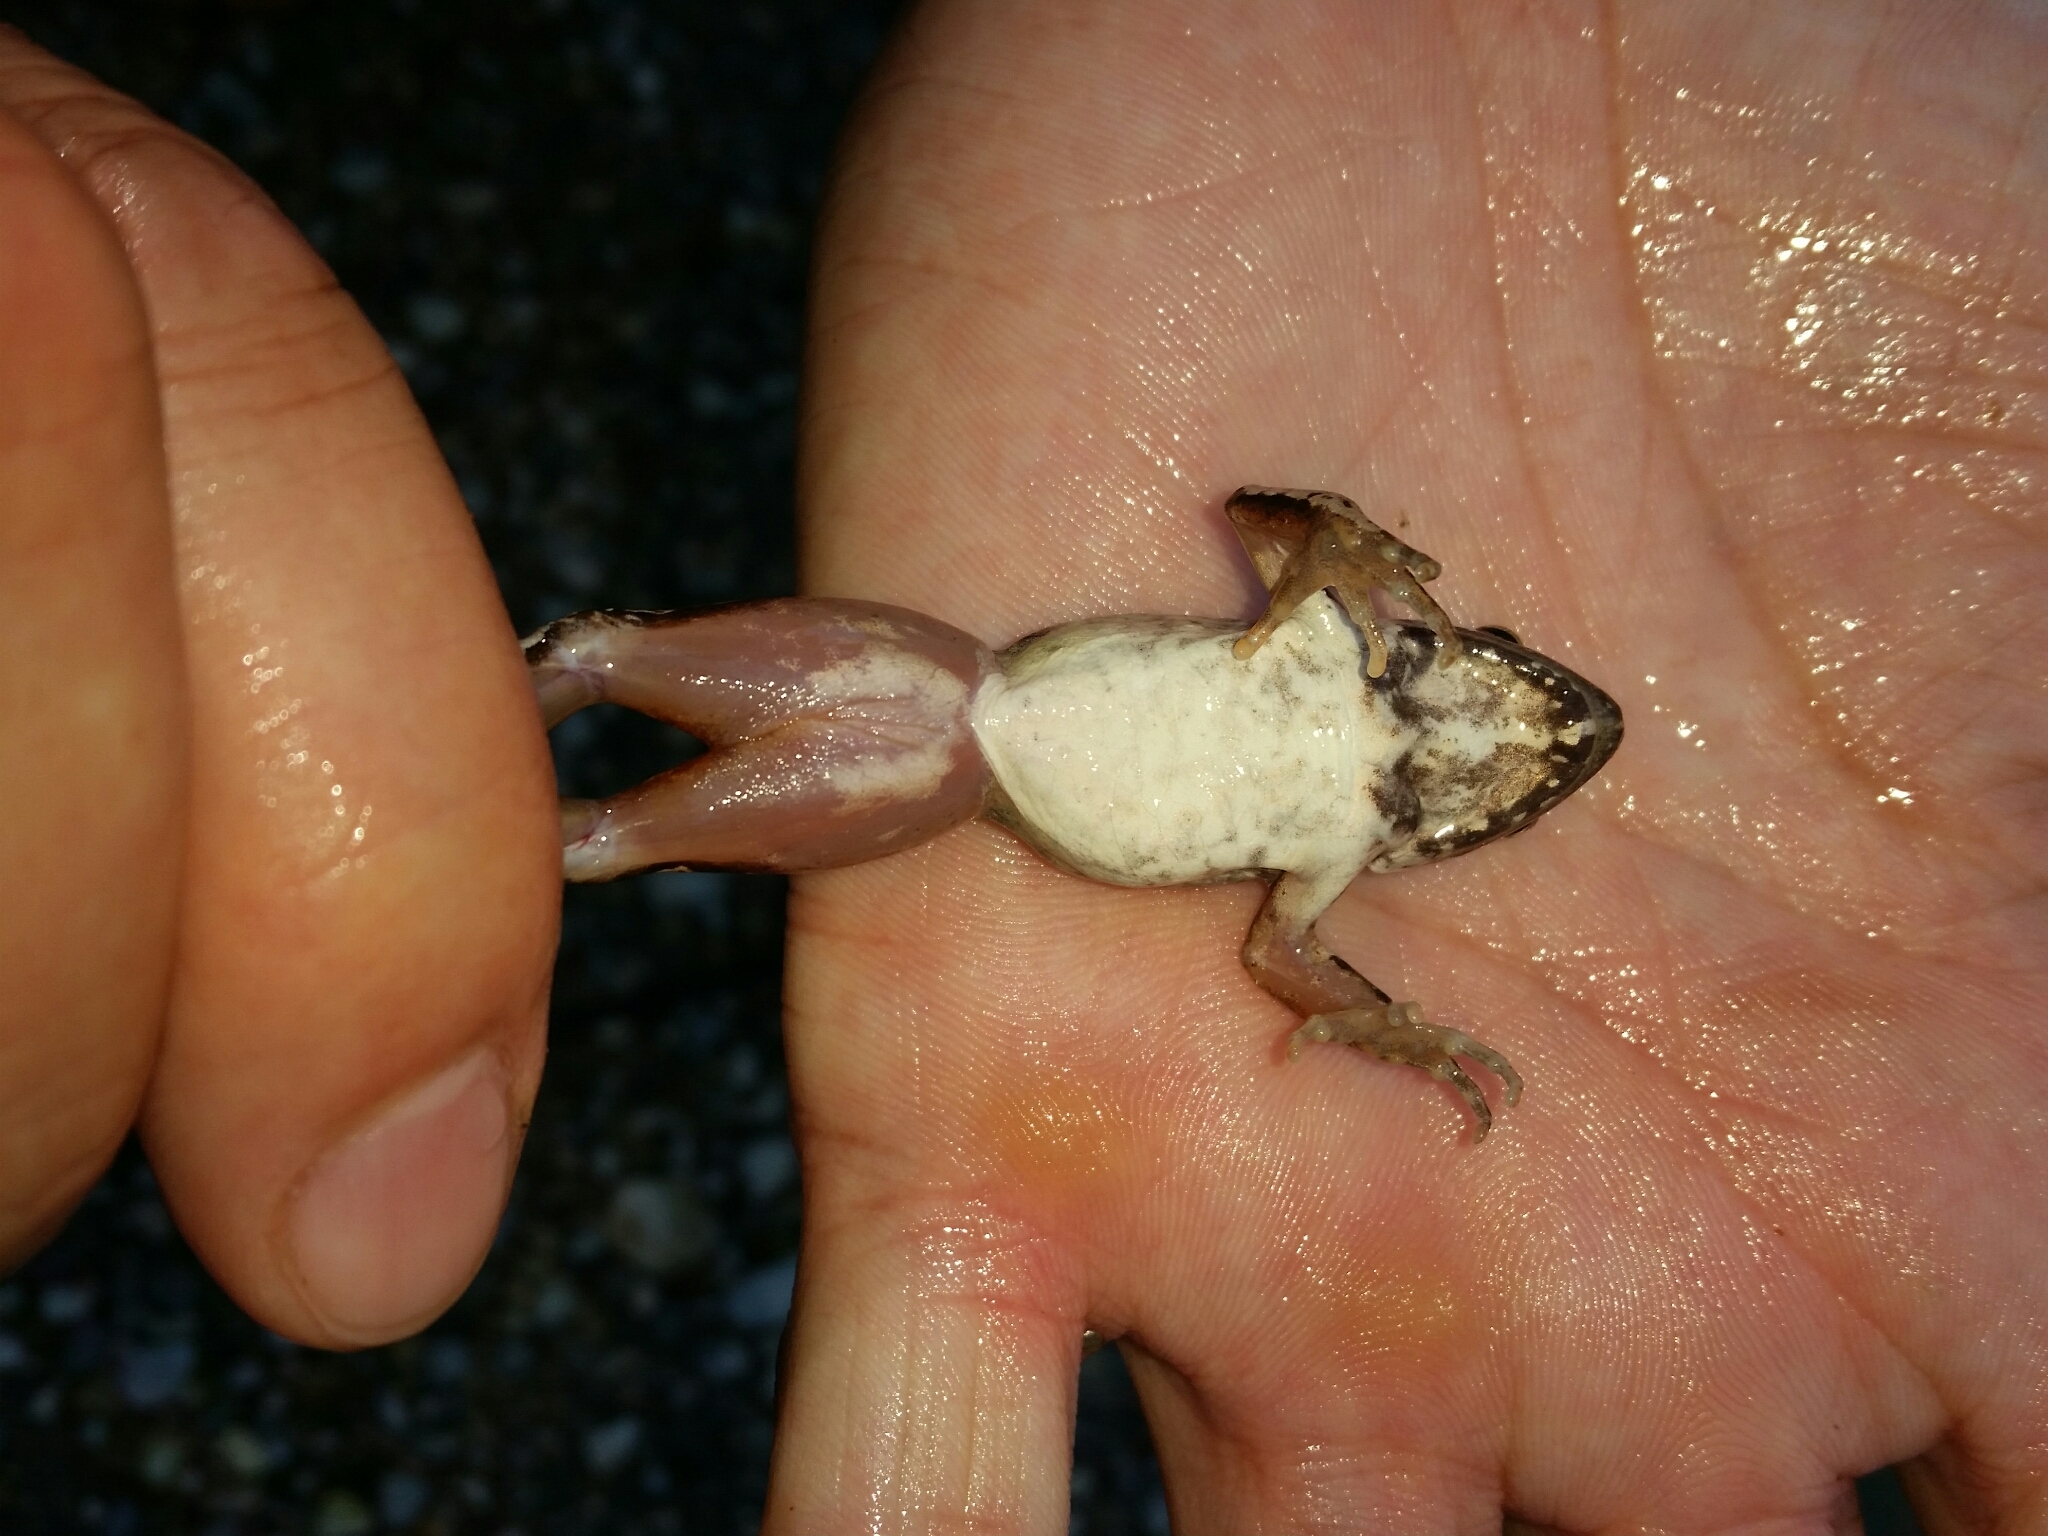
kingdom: Animalia
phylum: Chordata
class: Amphibia
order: Anura
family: Ranidae
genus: Rana
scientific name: Rana latastei
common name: Italian agile frog
